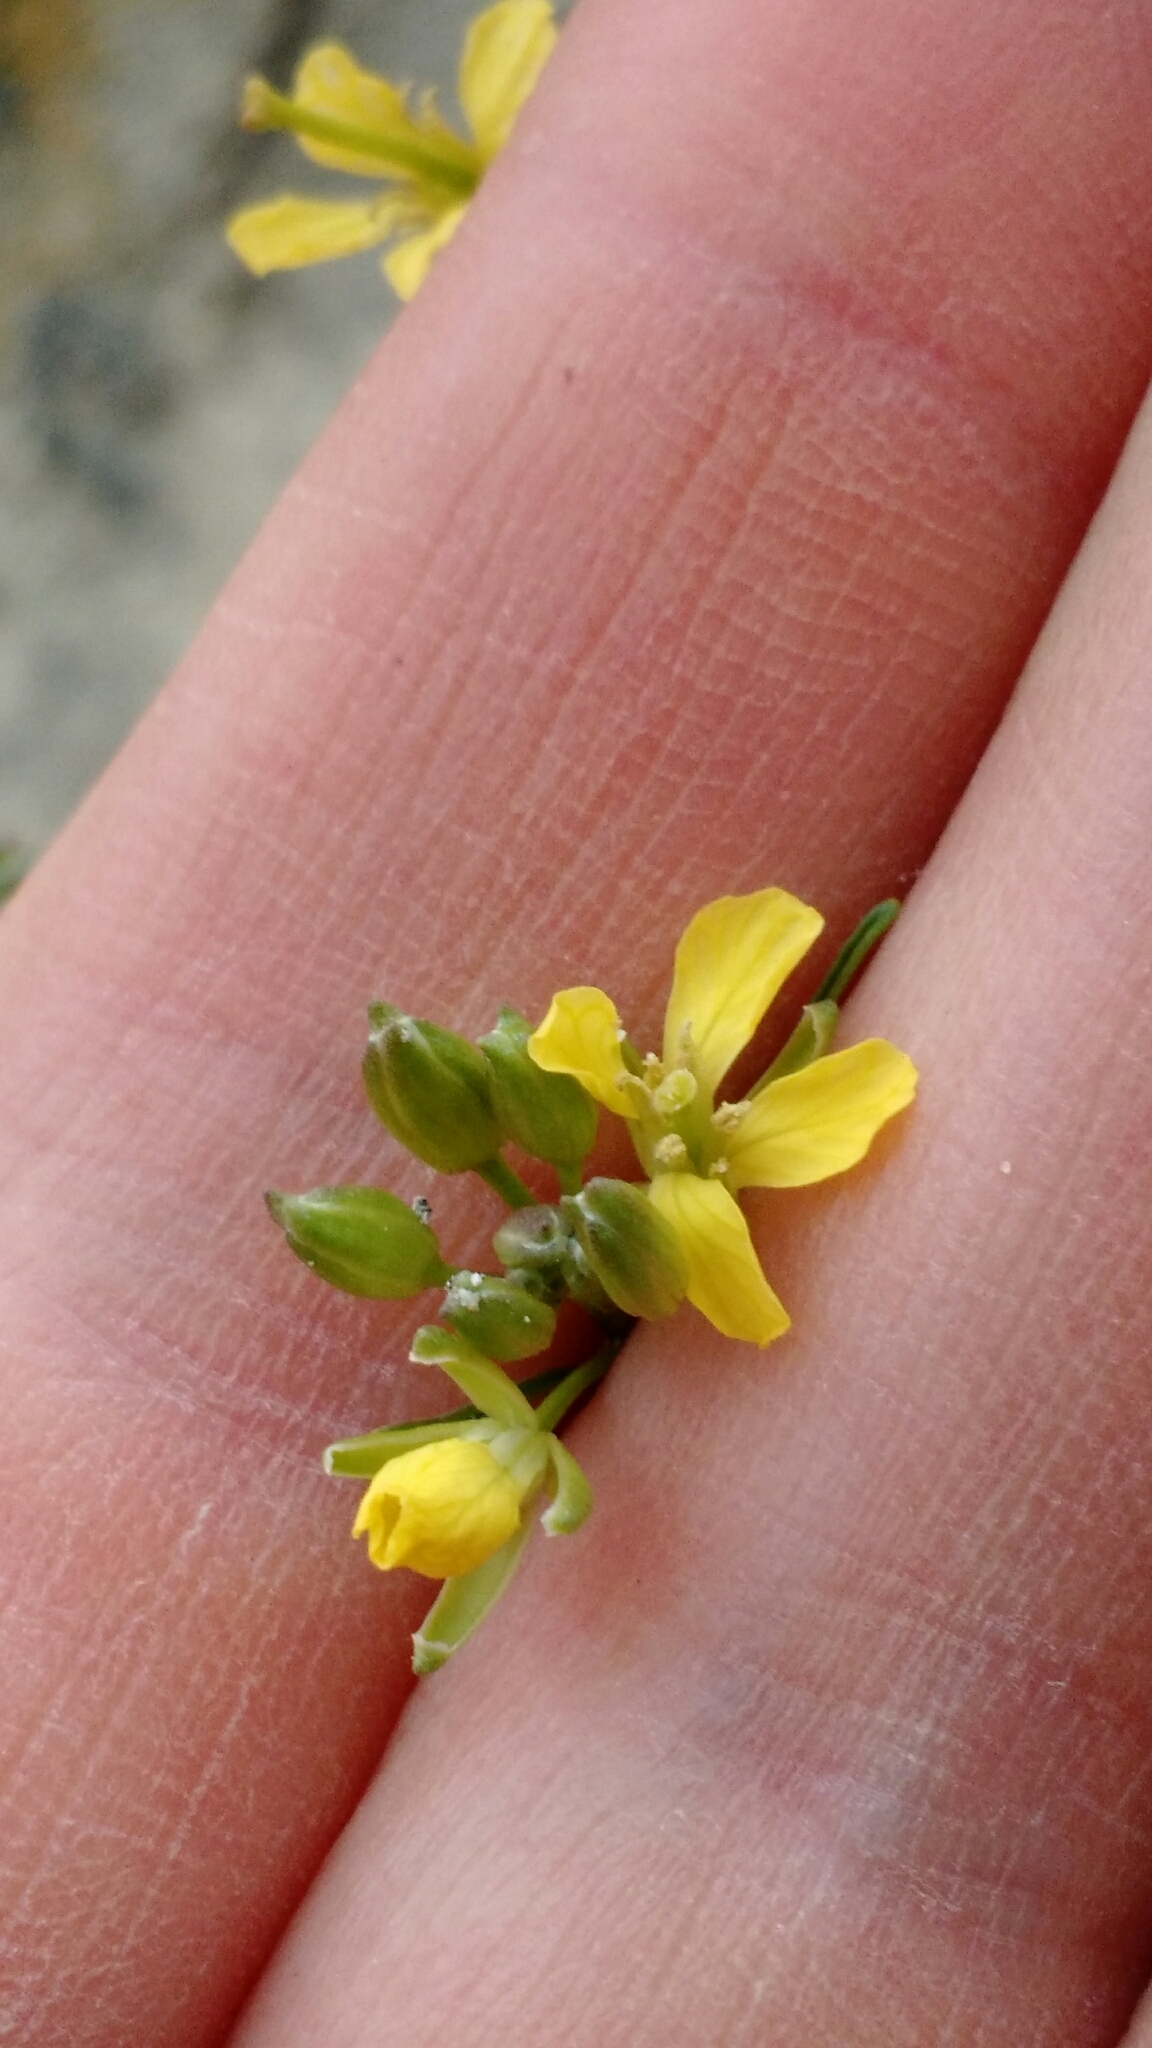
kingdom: Plantae
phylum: Tracheophyta
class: Magnoliopsida
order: Brassicales
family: Brassicaceae
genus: Sisymbrium
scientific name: Sisymbrium altissimum
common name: Tall rocket
